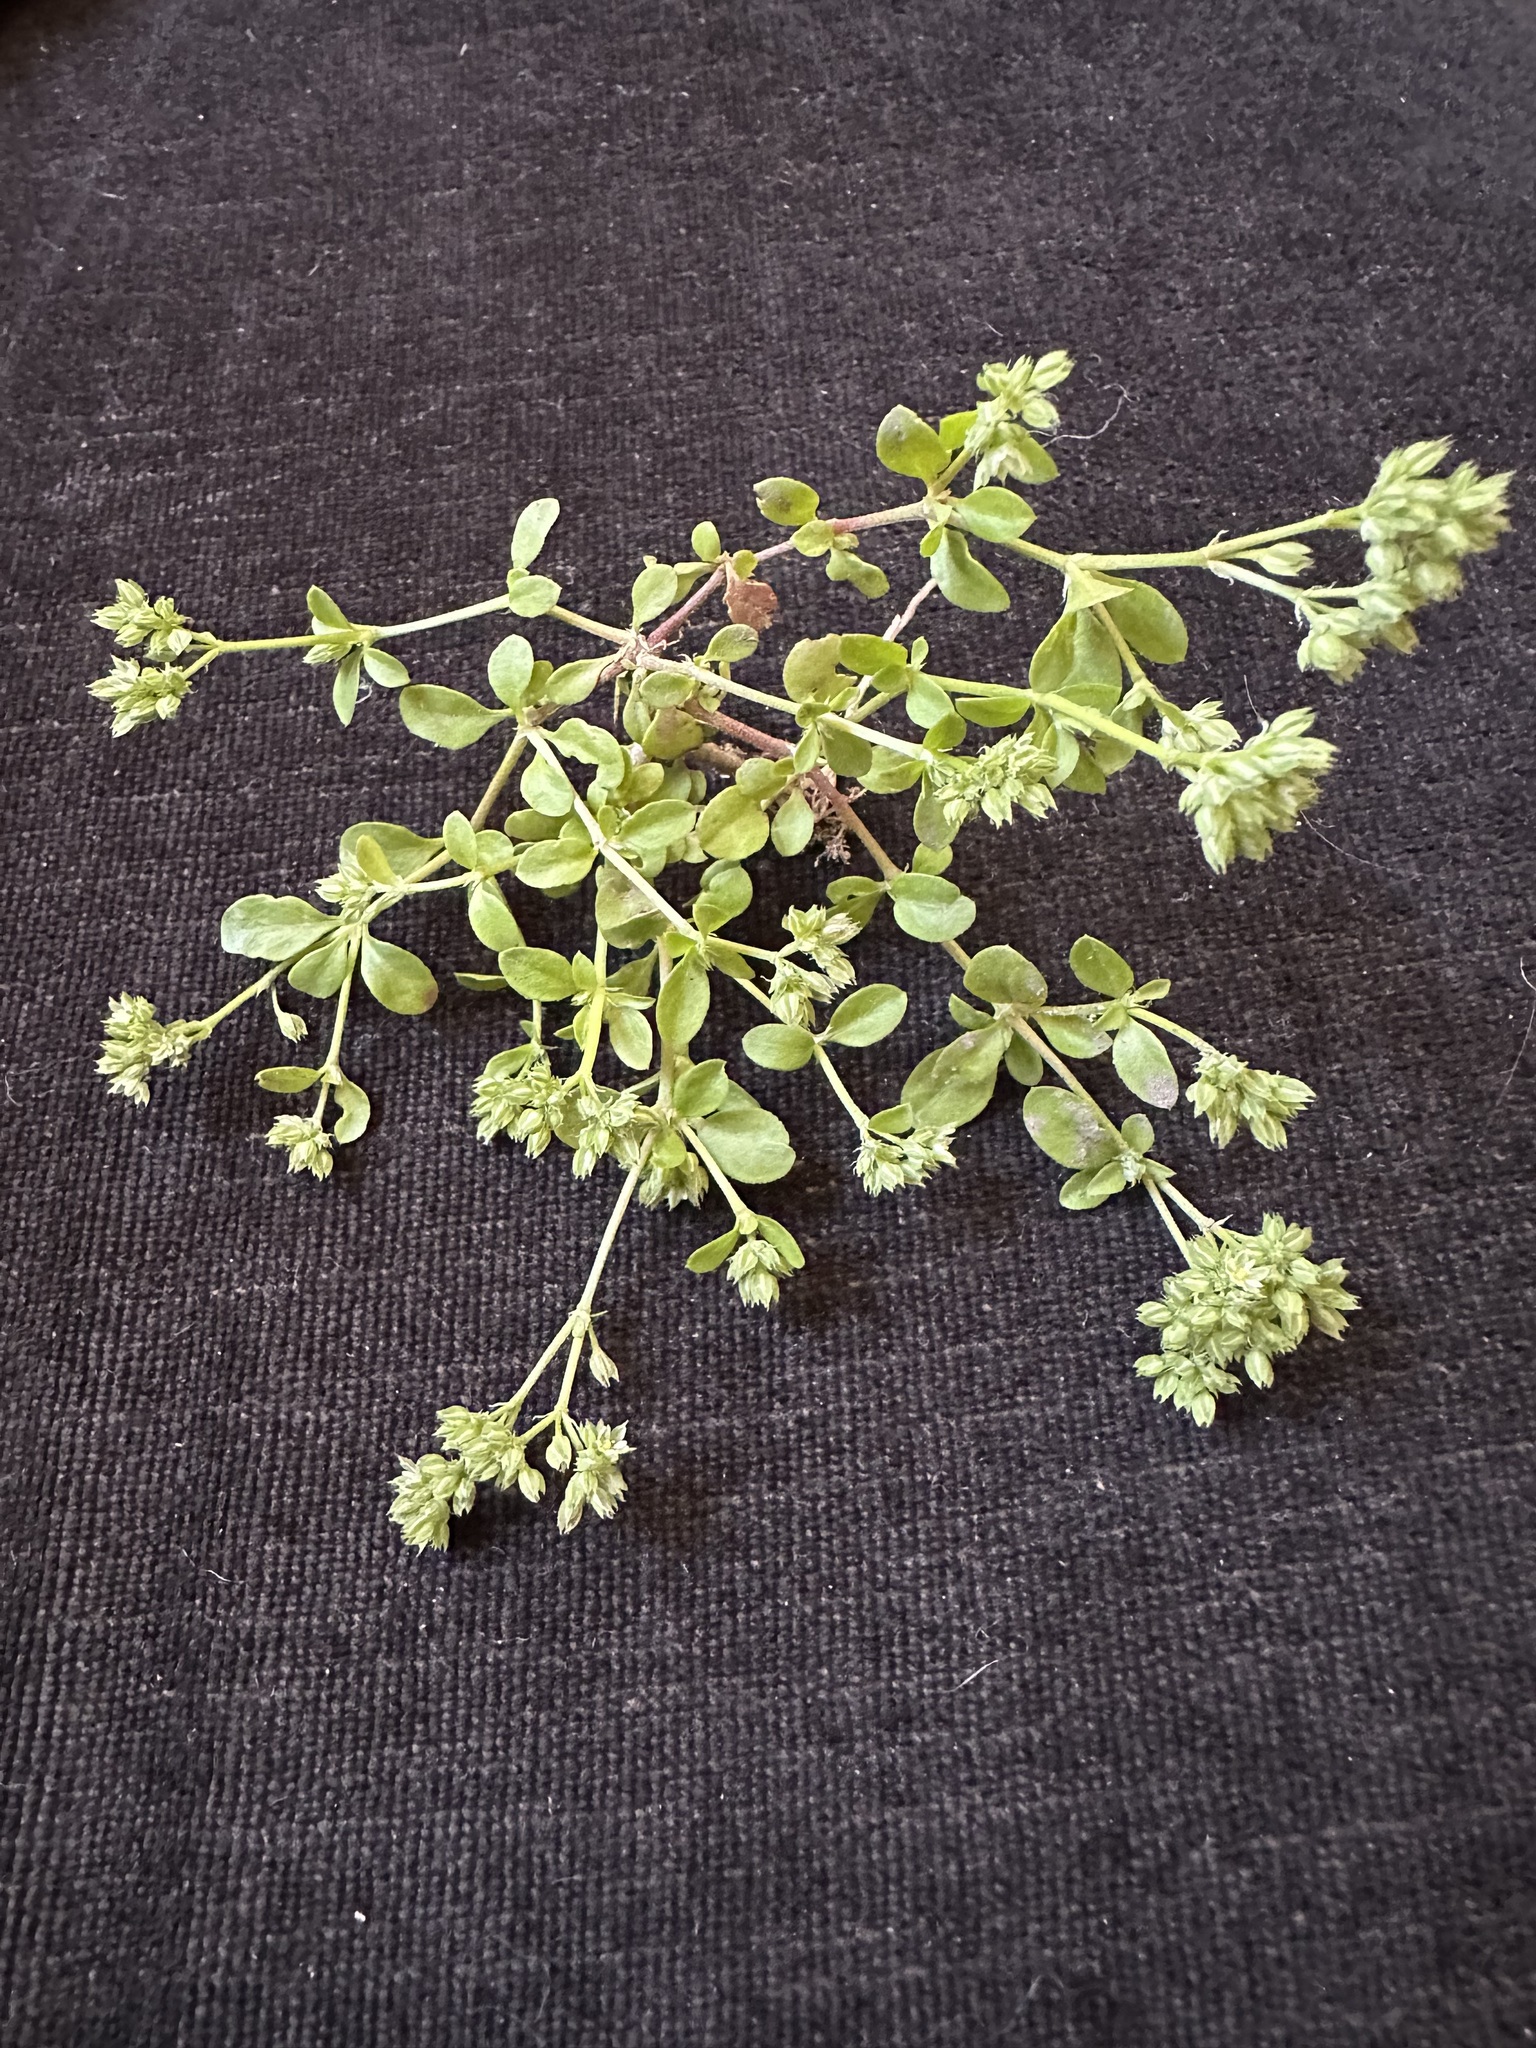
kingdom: Plantae
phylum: Tracheophyta
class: Magnoliopsida
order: Caryophyllales
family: Caryophyllaceae
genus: Polycarpon
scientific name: Polycarpon tetraphyllum
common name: Four-leaved all-seed
